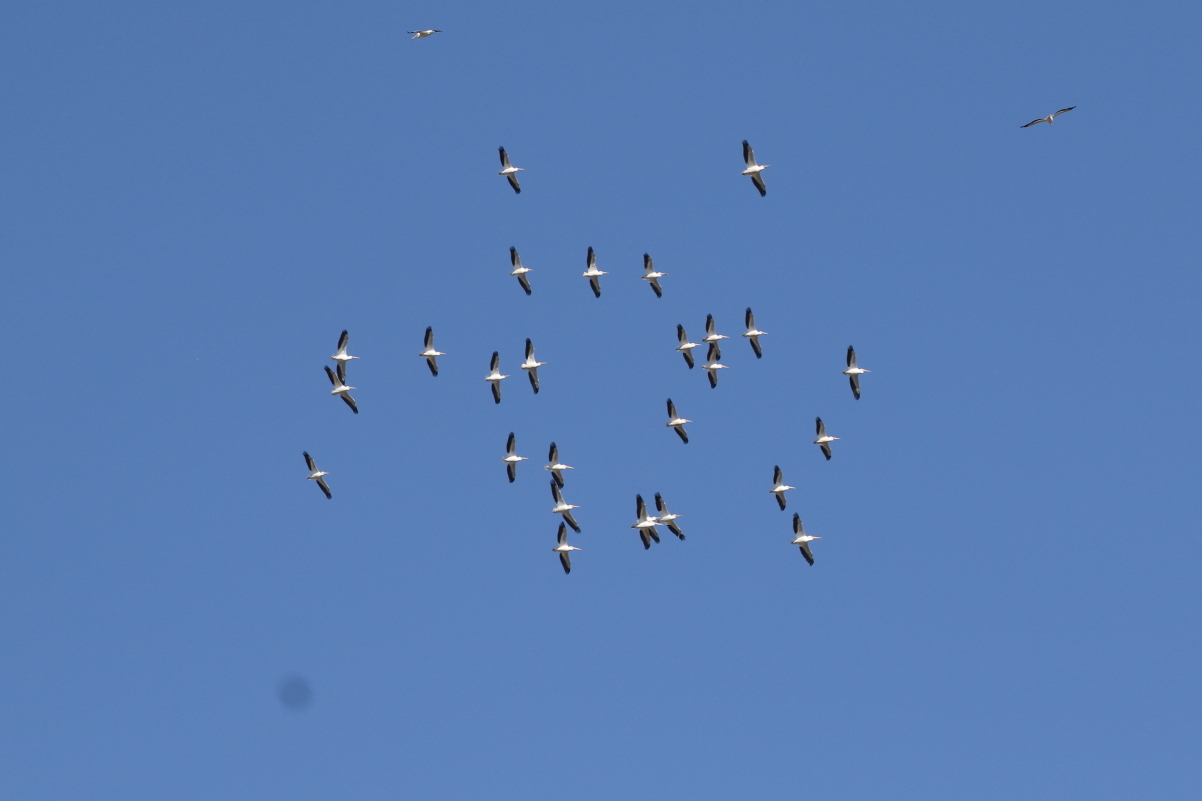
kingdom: Animalia
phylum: Chordata
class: Aves
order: Pelecaniformes
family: Pelecanidae
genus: Pelecanus
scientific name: Pelecanus erythrorhynchos
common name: American white pelican
